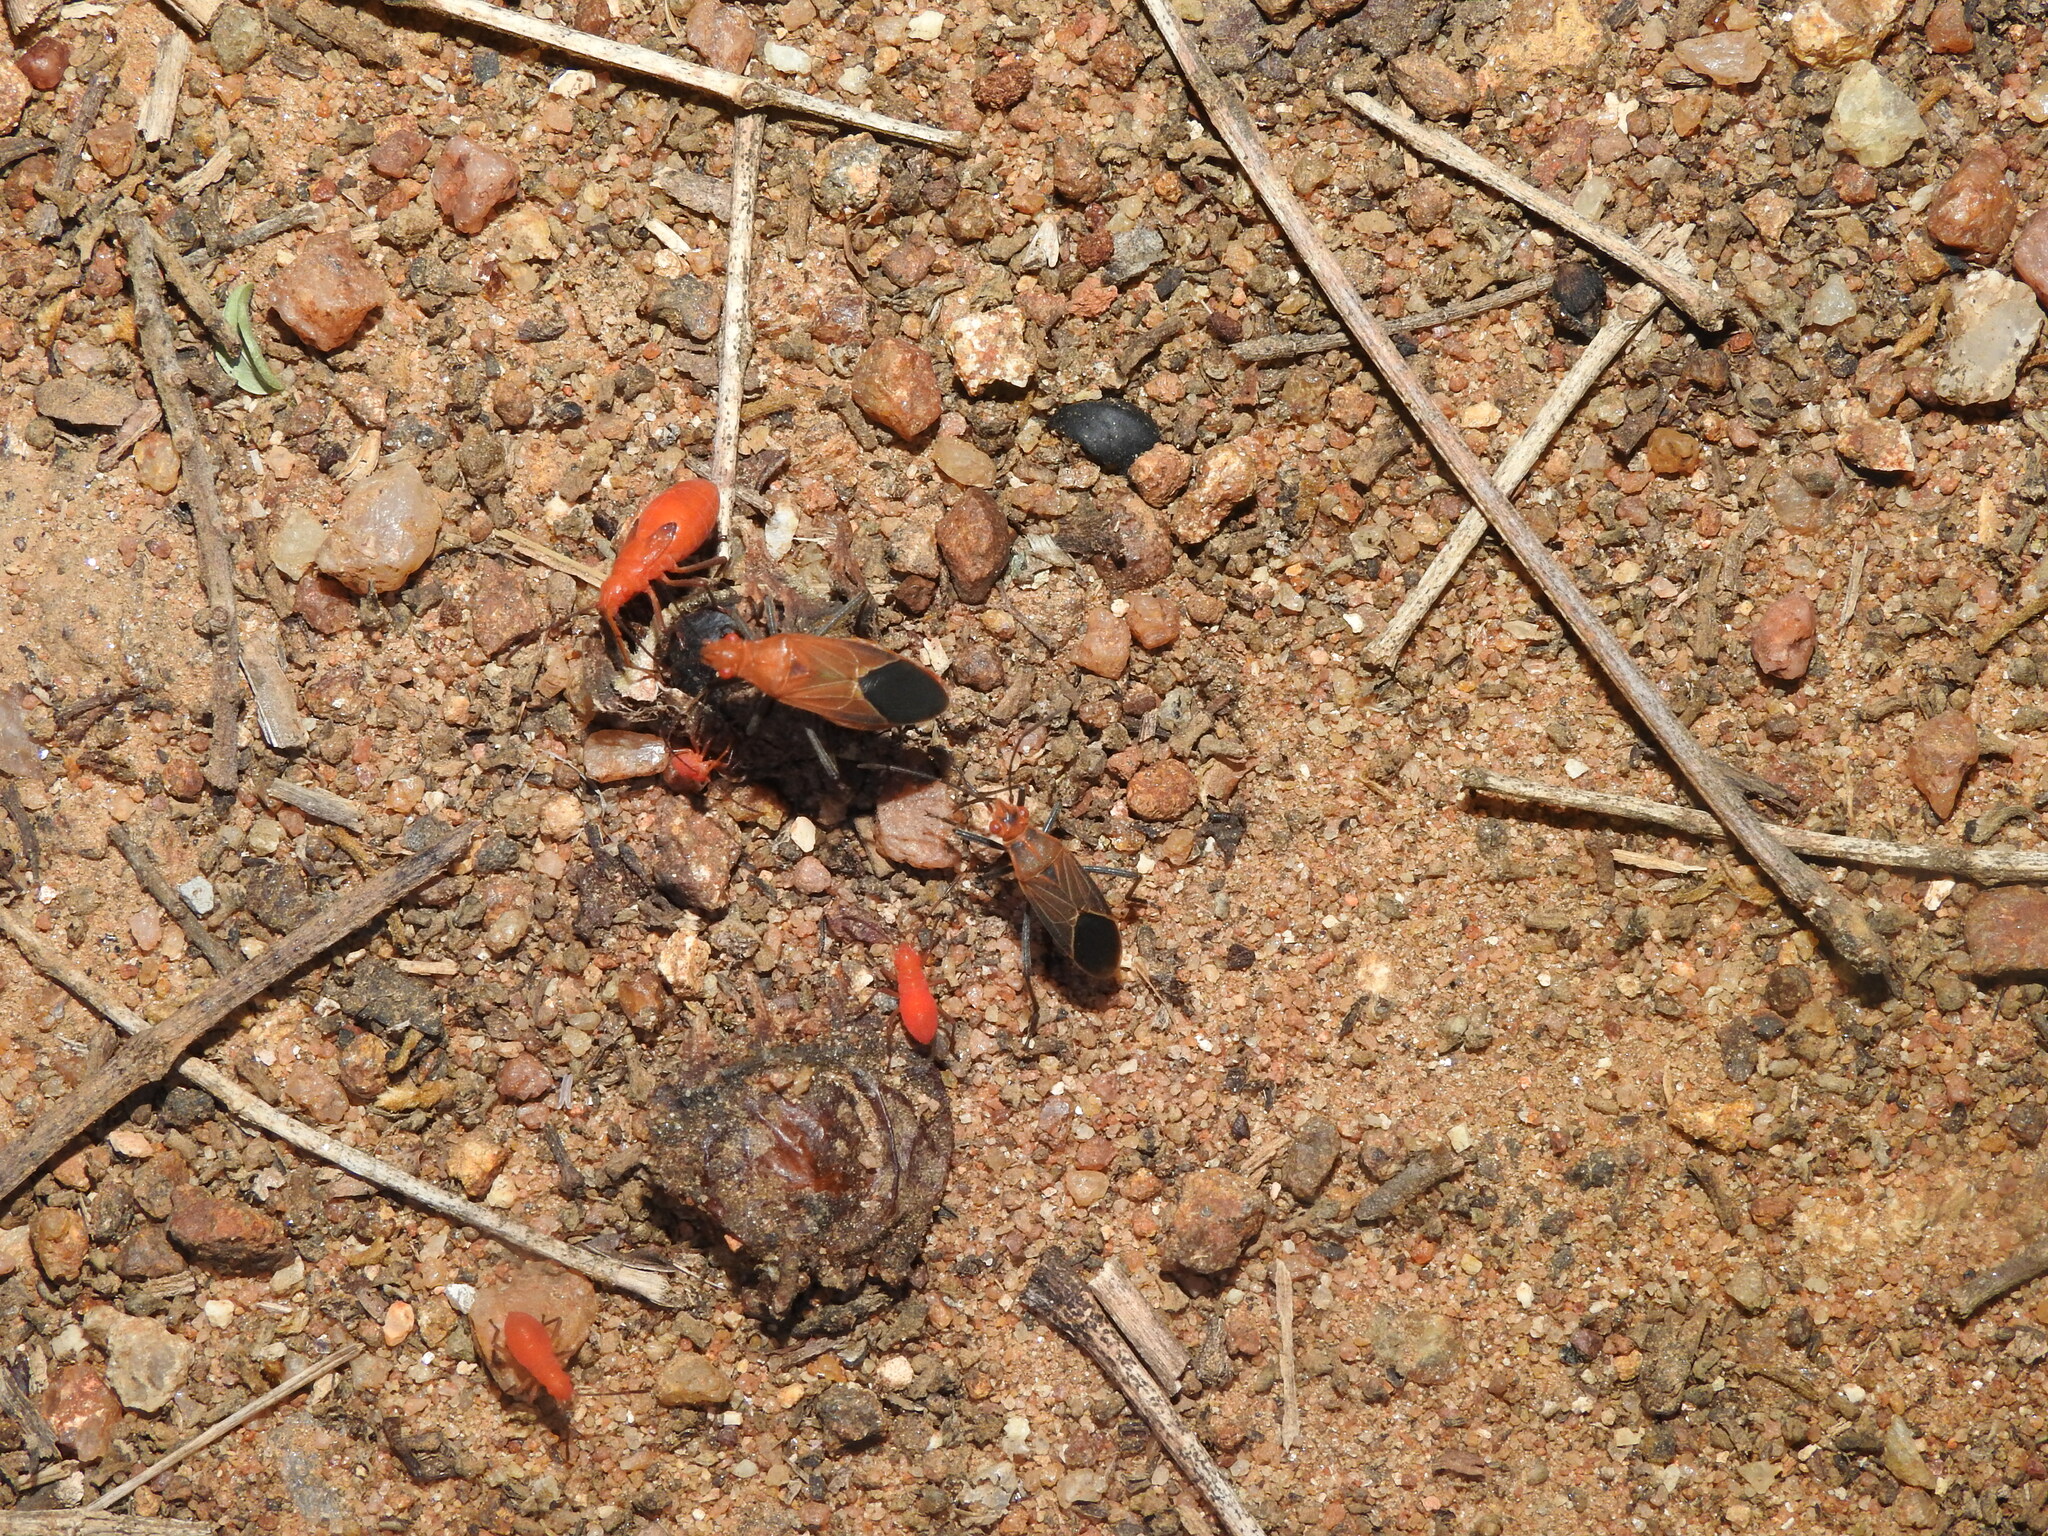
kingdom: Animalia
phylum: Arthropoda
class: Insecta
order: Hemiptera
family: Rhopalidae
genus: Boisea
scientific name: Boisea coimbatorensis
